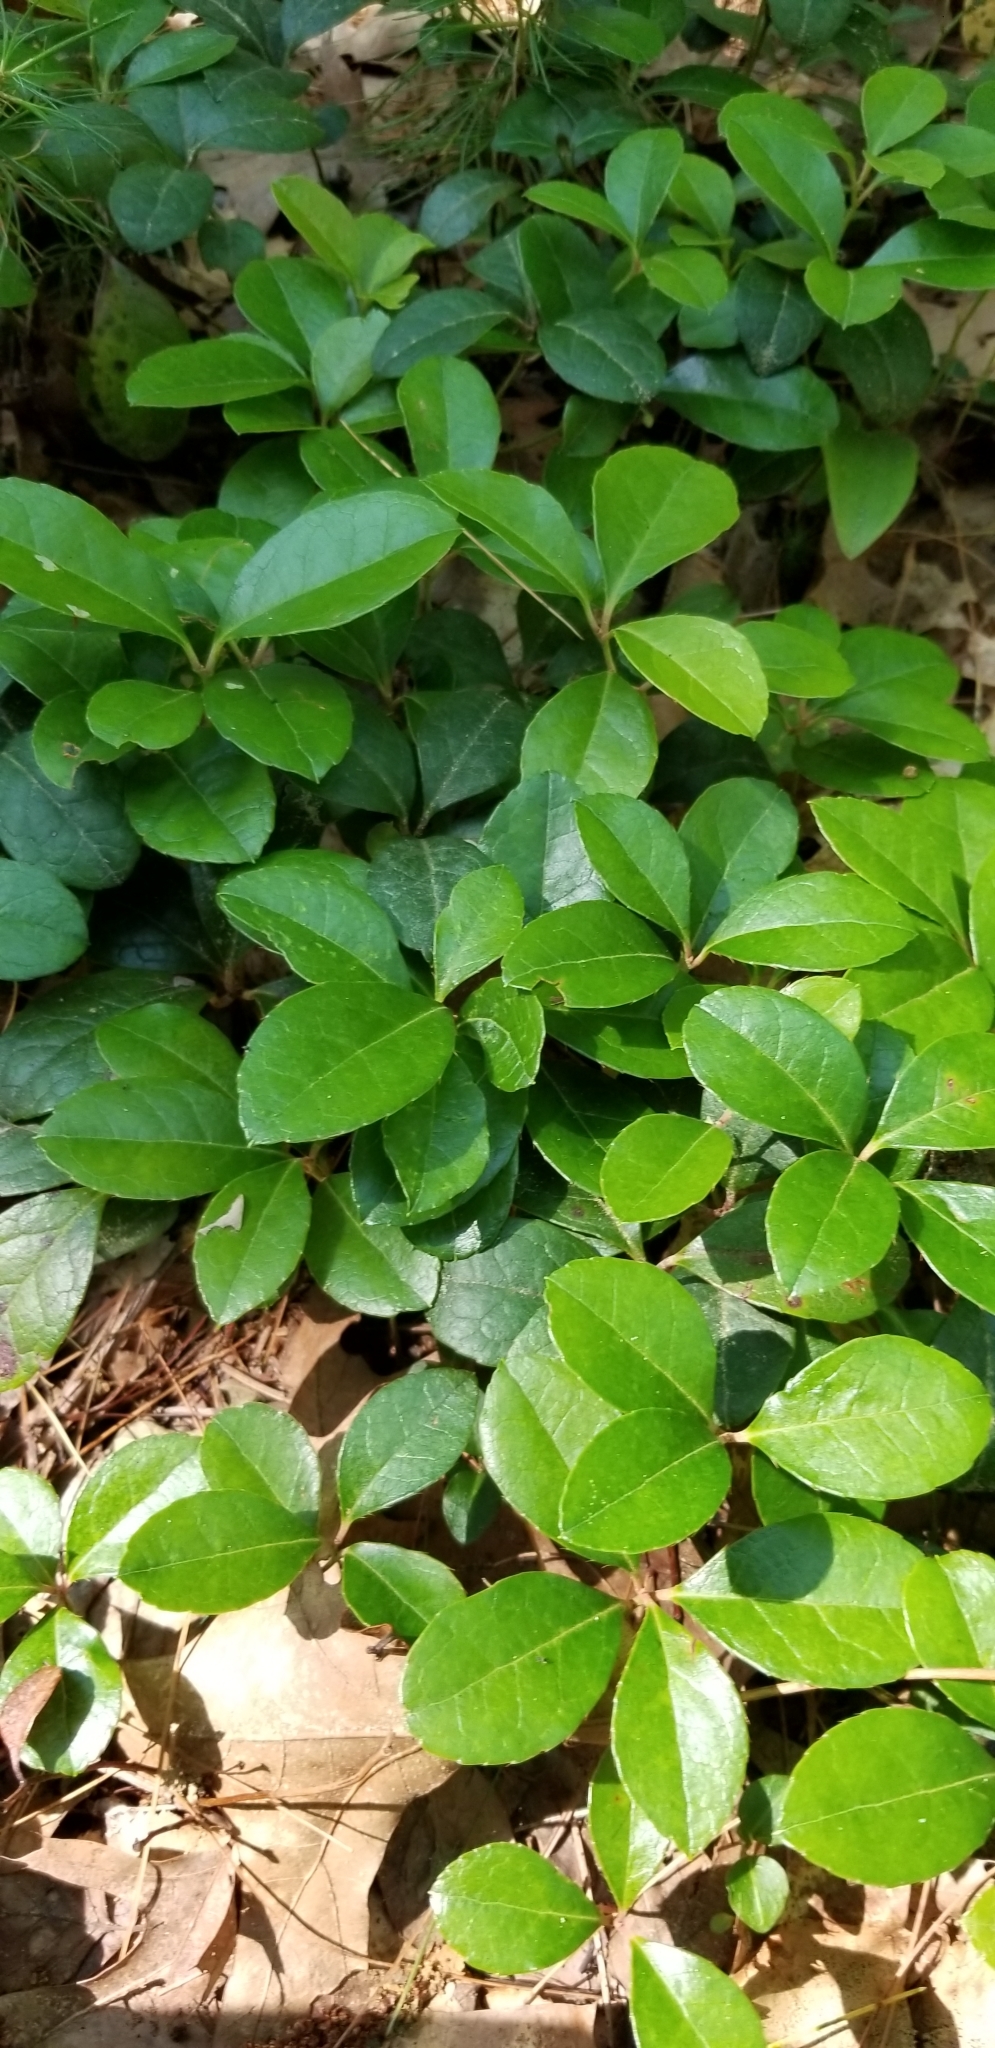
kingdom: Plantae
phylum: Tracheophyta
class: Magnoliopsida
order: Ericales
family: Ericaceae
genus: Gaultheria
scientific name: Gaultheria procumbens
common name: Checkerberry
